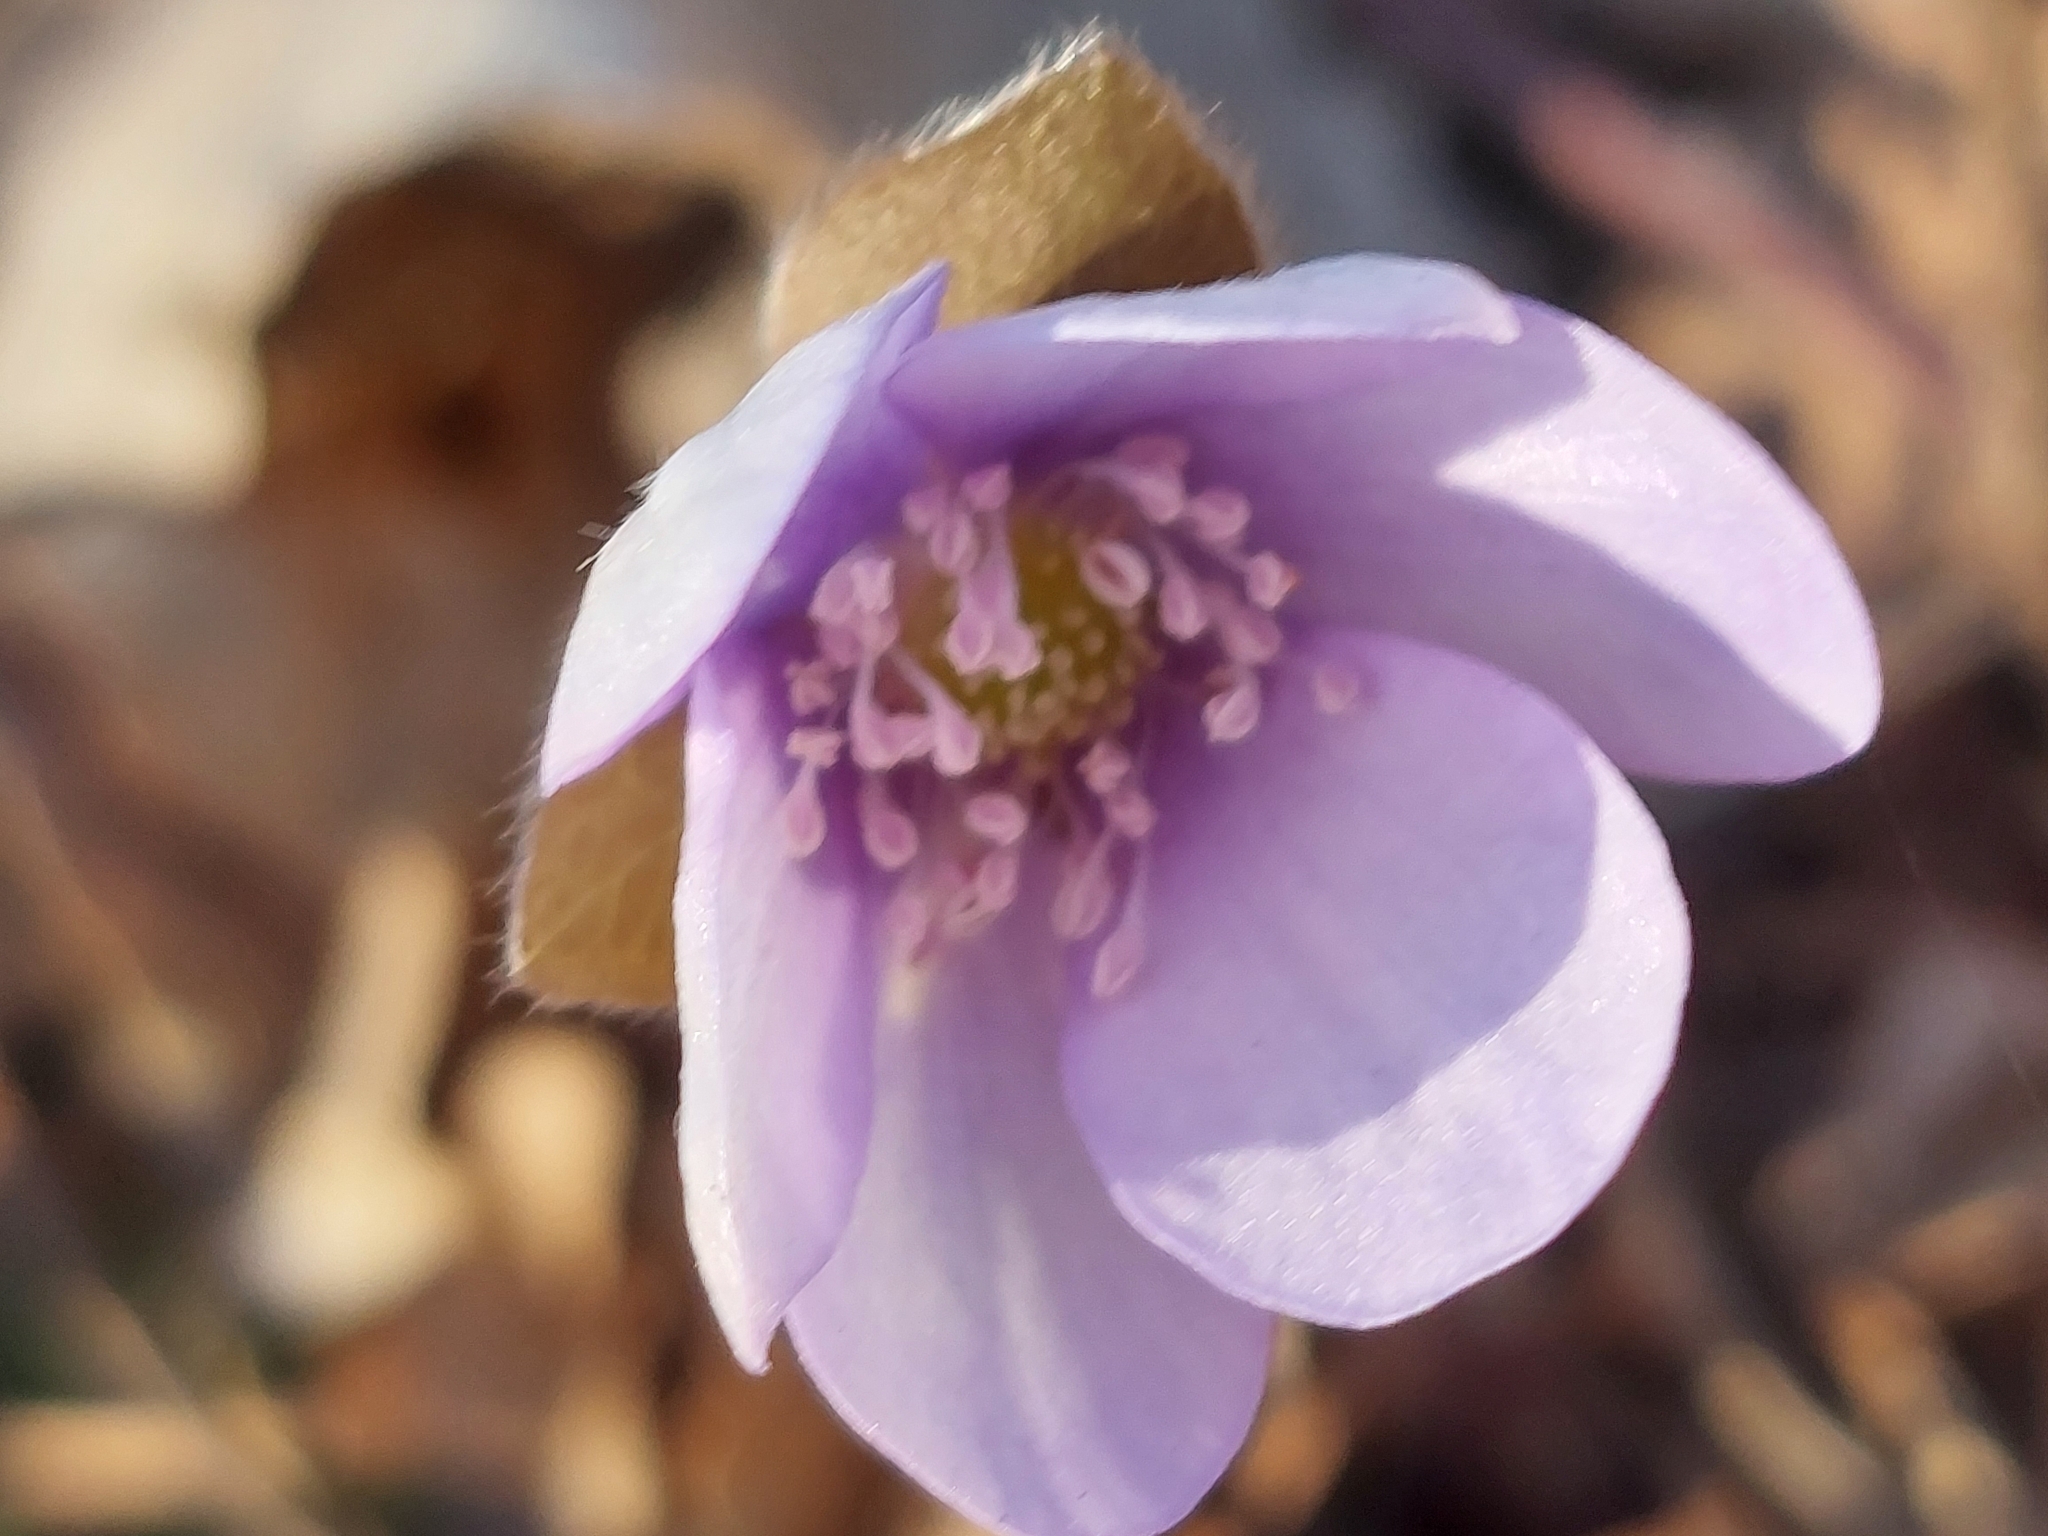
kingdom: Plantae
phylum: Tracheophyta
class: Magnoliopsida
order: Ranunculales
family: Ranunculaceae
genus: Hepatica
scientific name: Hepatica nobilis
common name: Liverleaf
